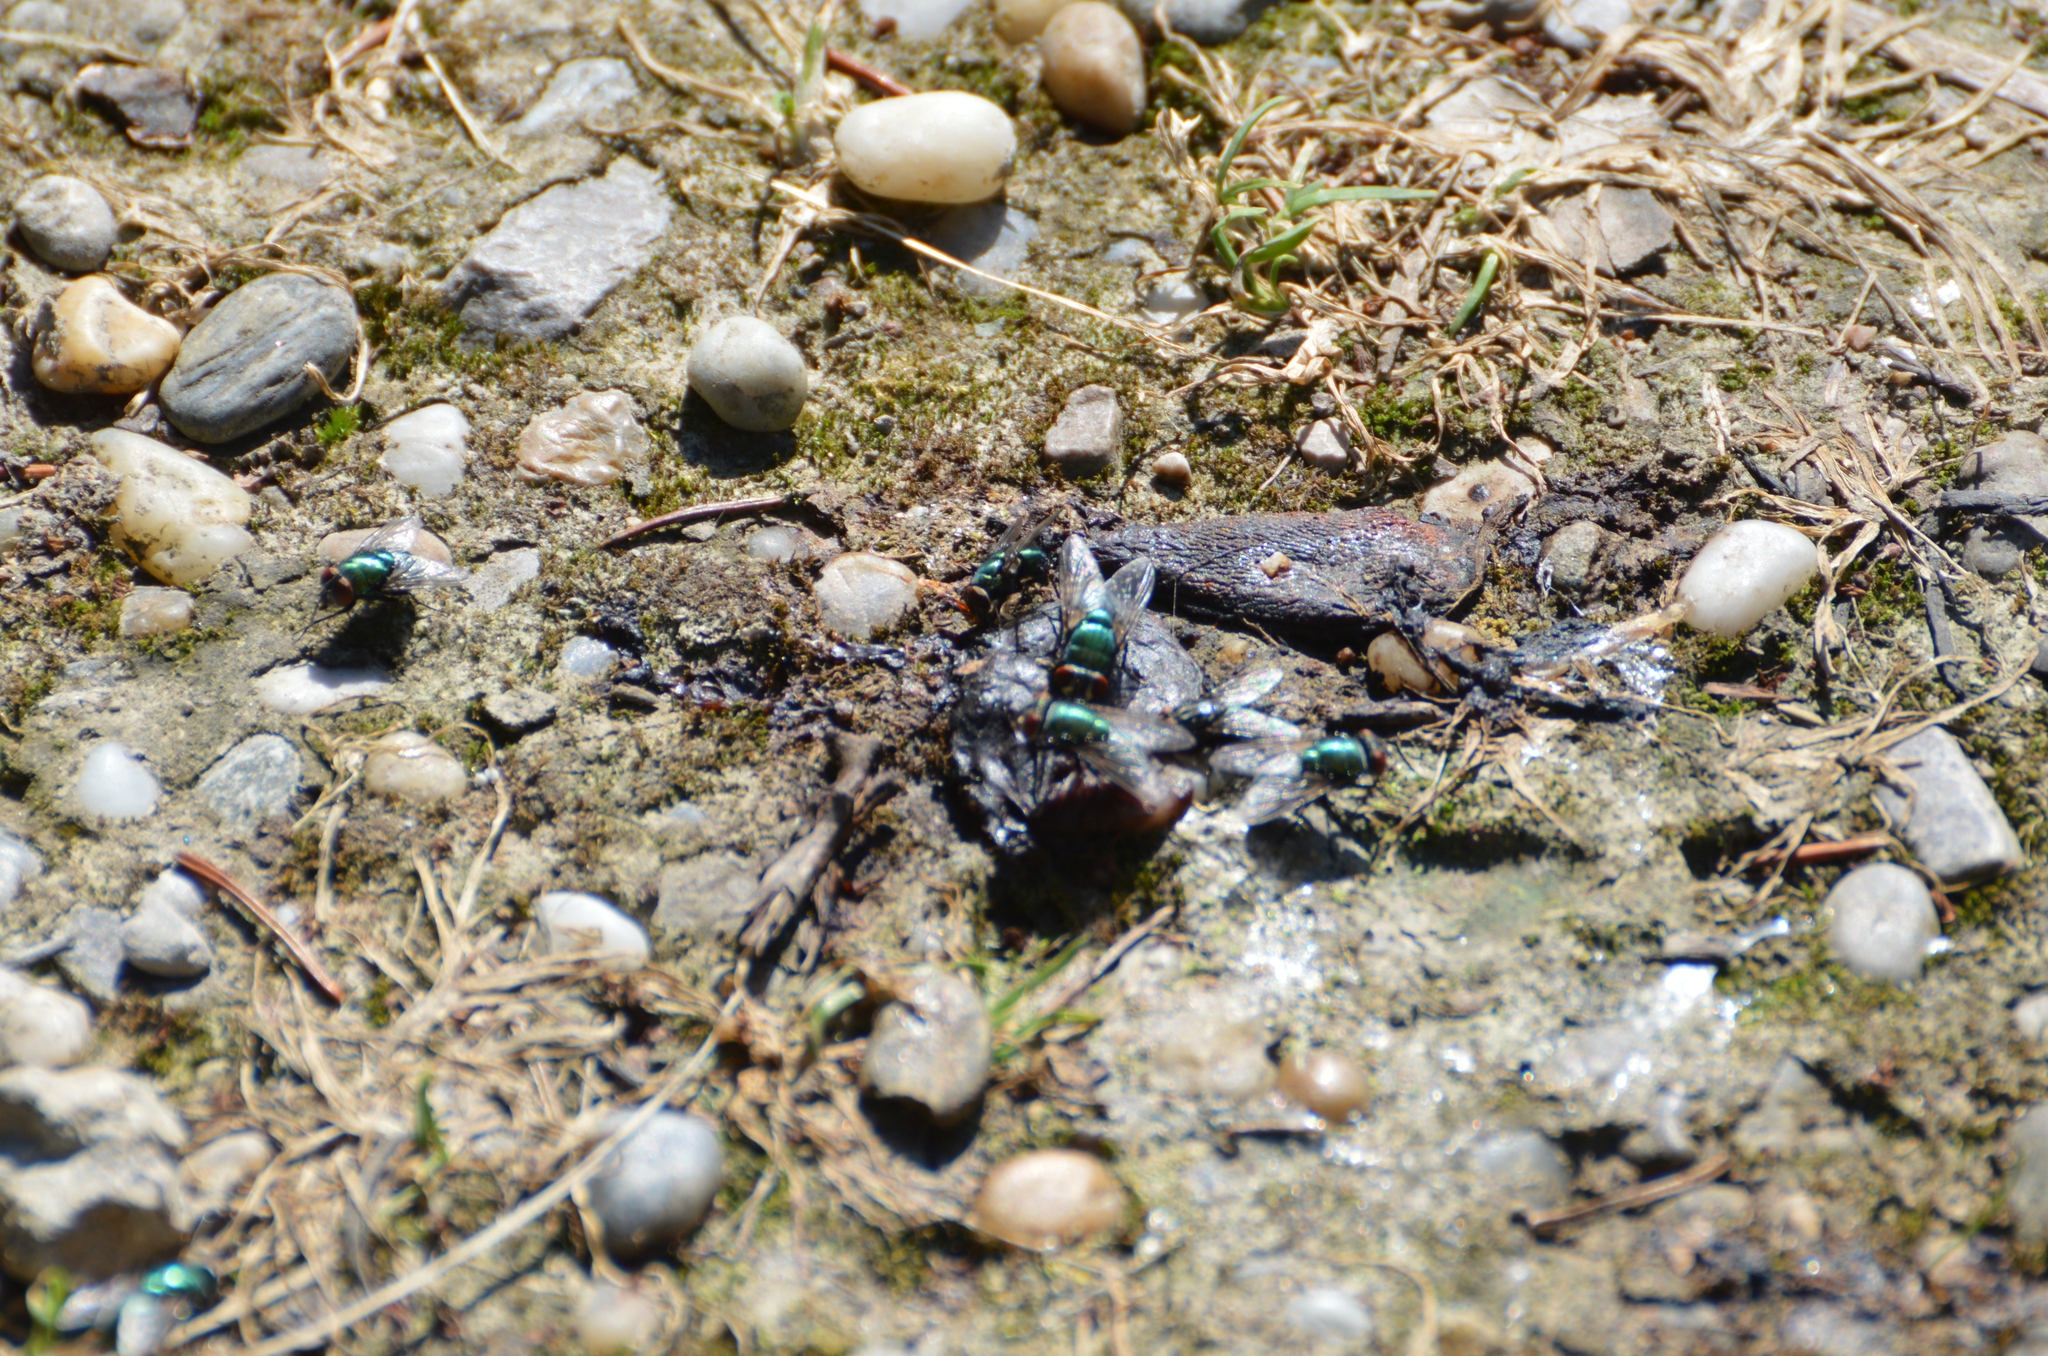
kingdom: Animalia
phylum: Arthropoda
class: Insecta
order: Diptera
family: Calliphoridae
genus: Lucilia
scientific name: Lucilia
